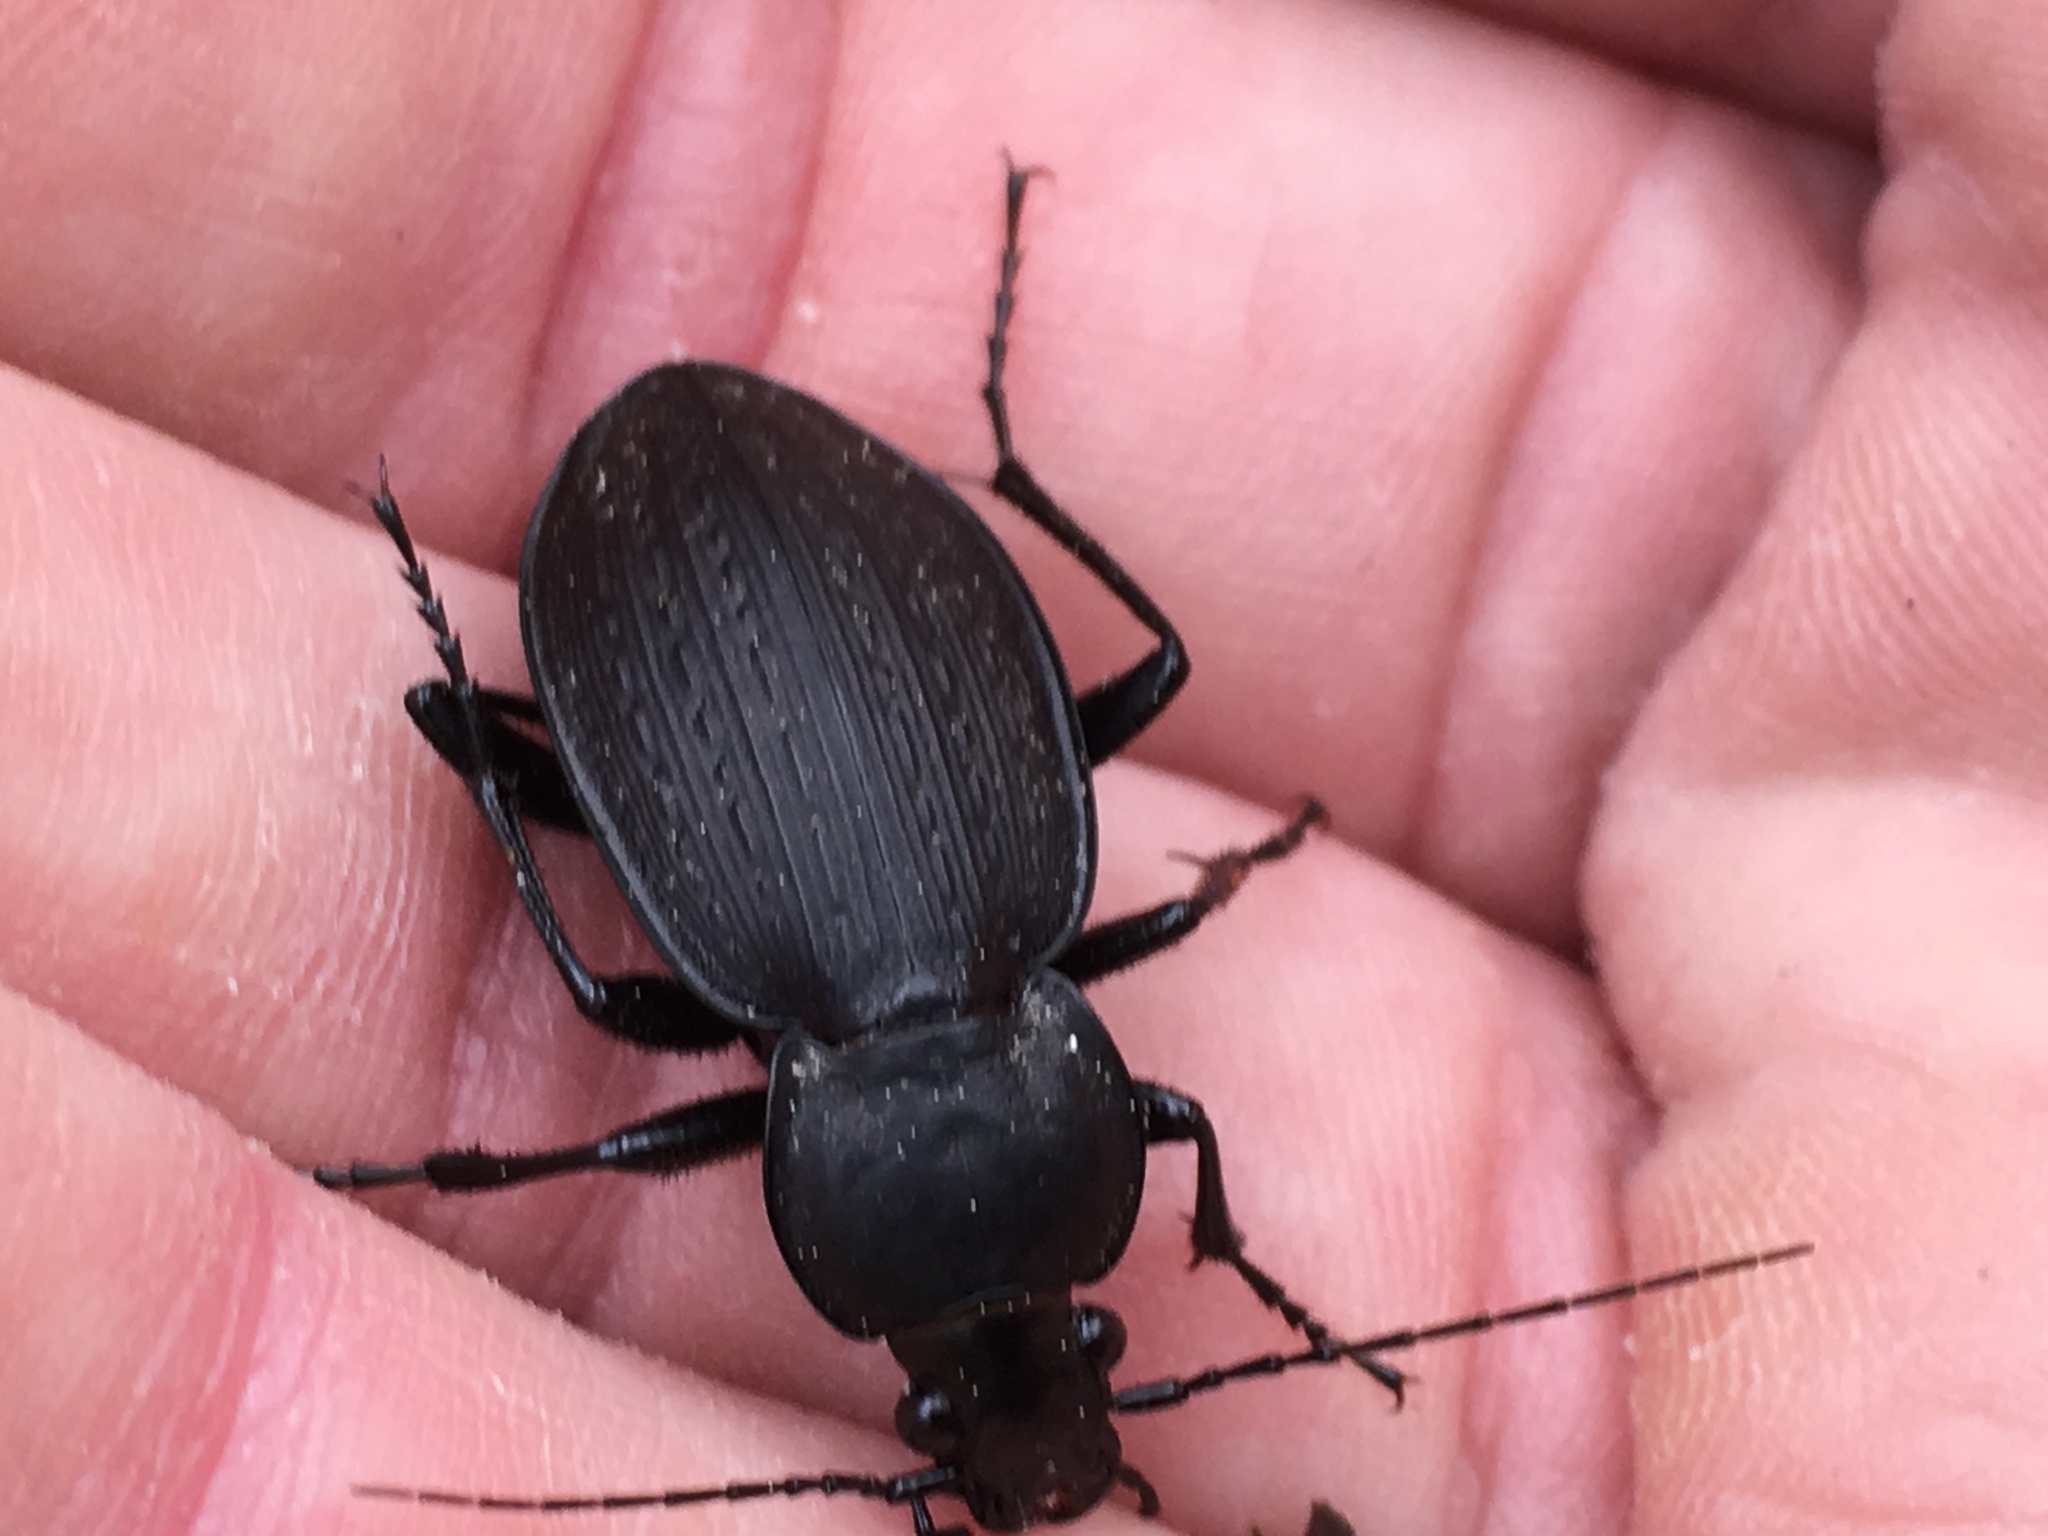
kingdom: Animalia
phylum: Arthropoda
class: Insecta
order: Coleoptera
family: Carabidae
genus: Carabus
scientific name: Carabus vinctus
